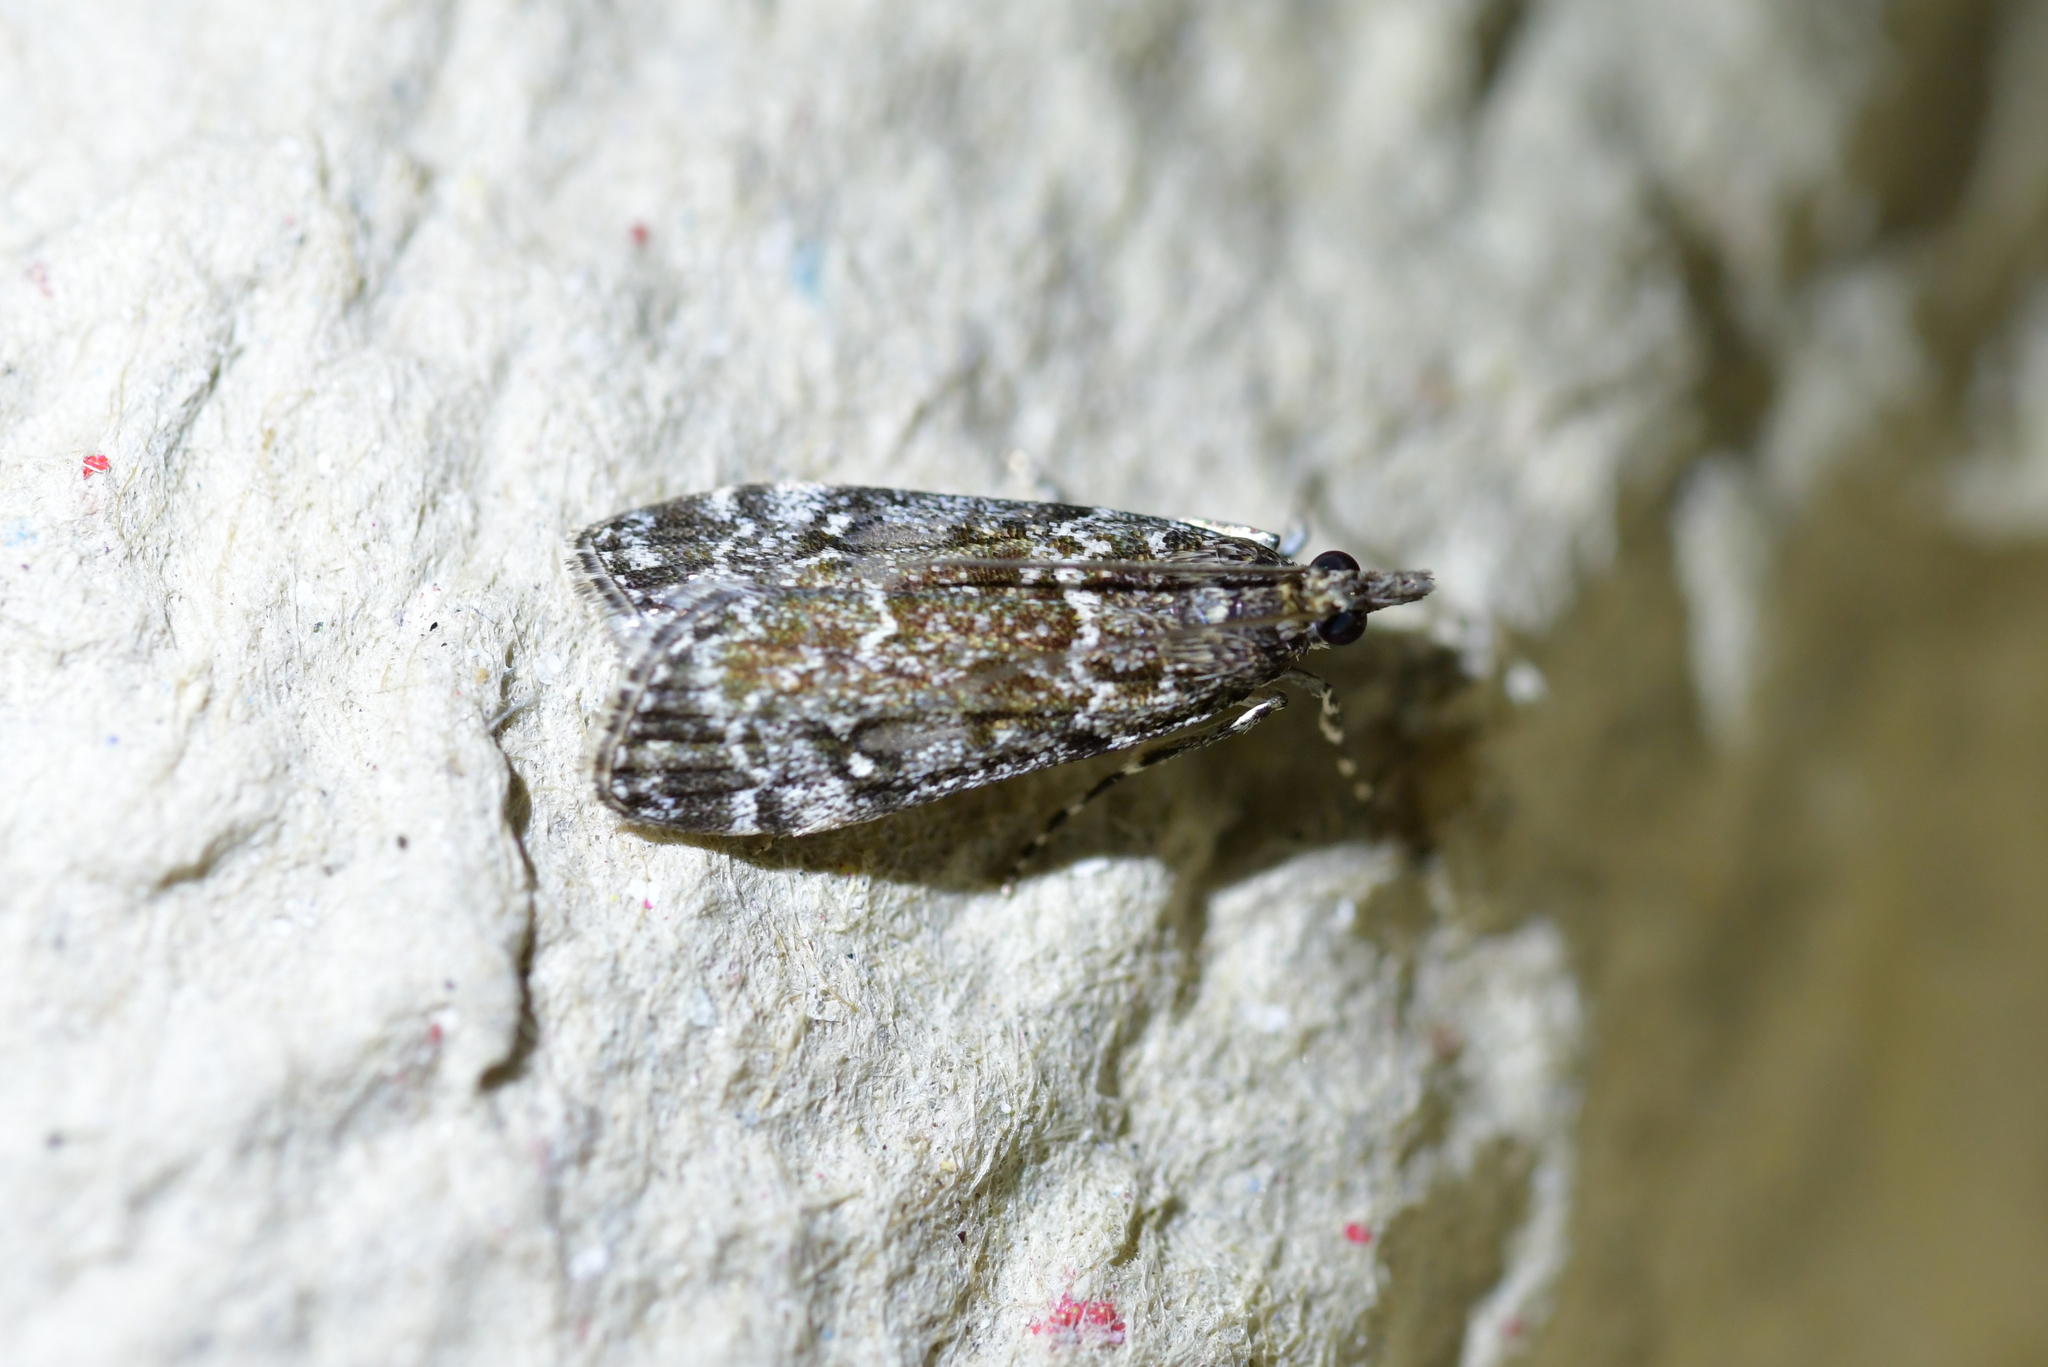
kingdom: Animalia
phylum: Arthropoda
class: Insecta
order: Lepidoptera
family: Crambidae
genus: Eudonia
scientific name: Eudonia philerga
